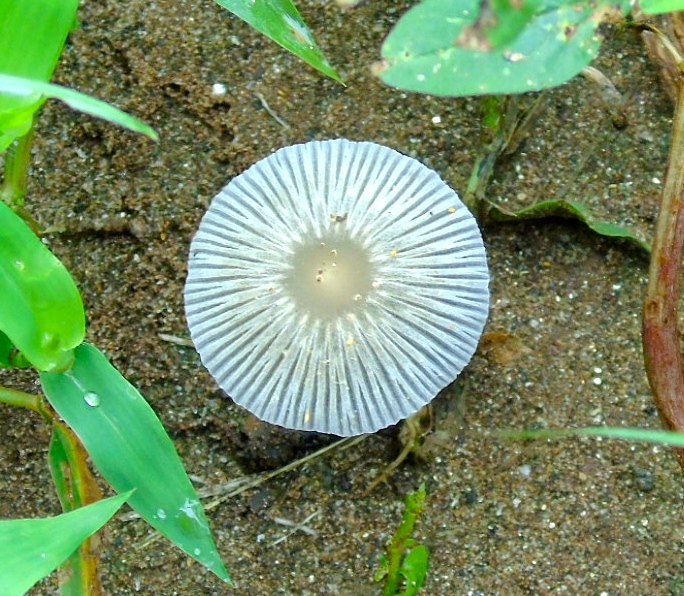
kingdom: Fungi
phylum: Basidiomycota
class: Agaricomycetes
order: Agaricales
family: Psathyrellaceae
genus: Coprinellus
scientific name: Coprinellus arenicola
